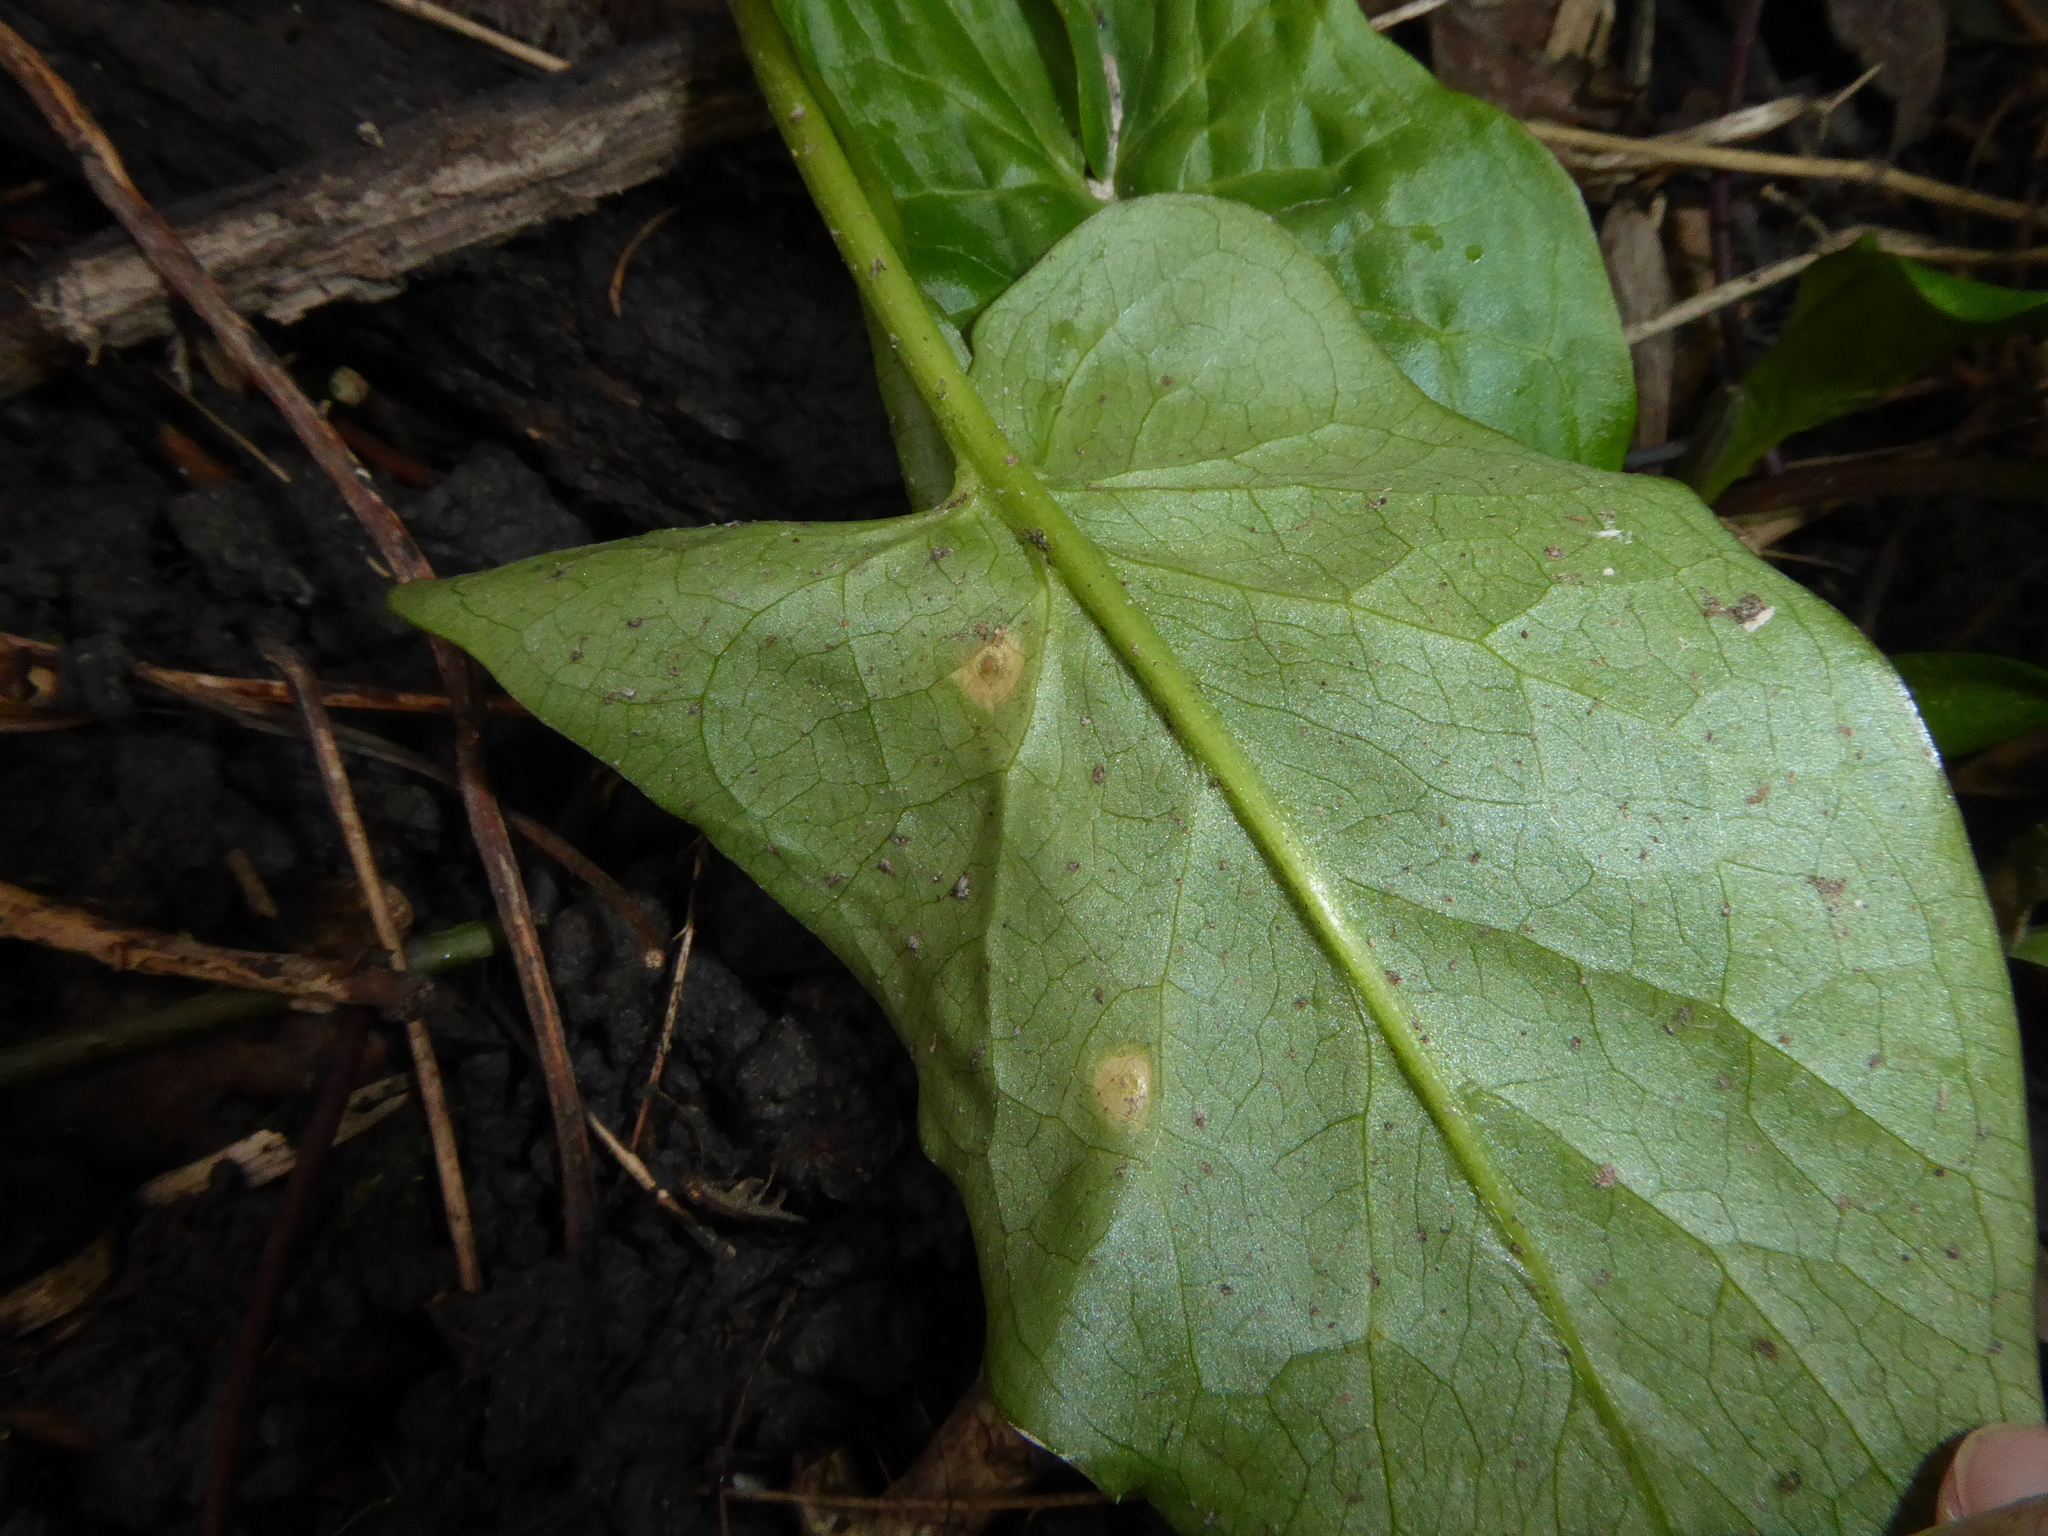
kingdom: Plantae
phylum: Tracheophyta
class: Liliopsida
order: Alismatales
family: Araceae
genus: Arum
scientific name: Arum maculatum
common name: Lords-and-ladies
